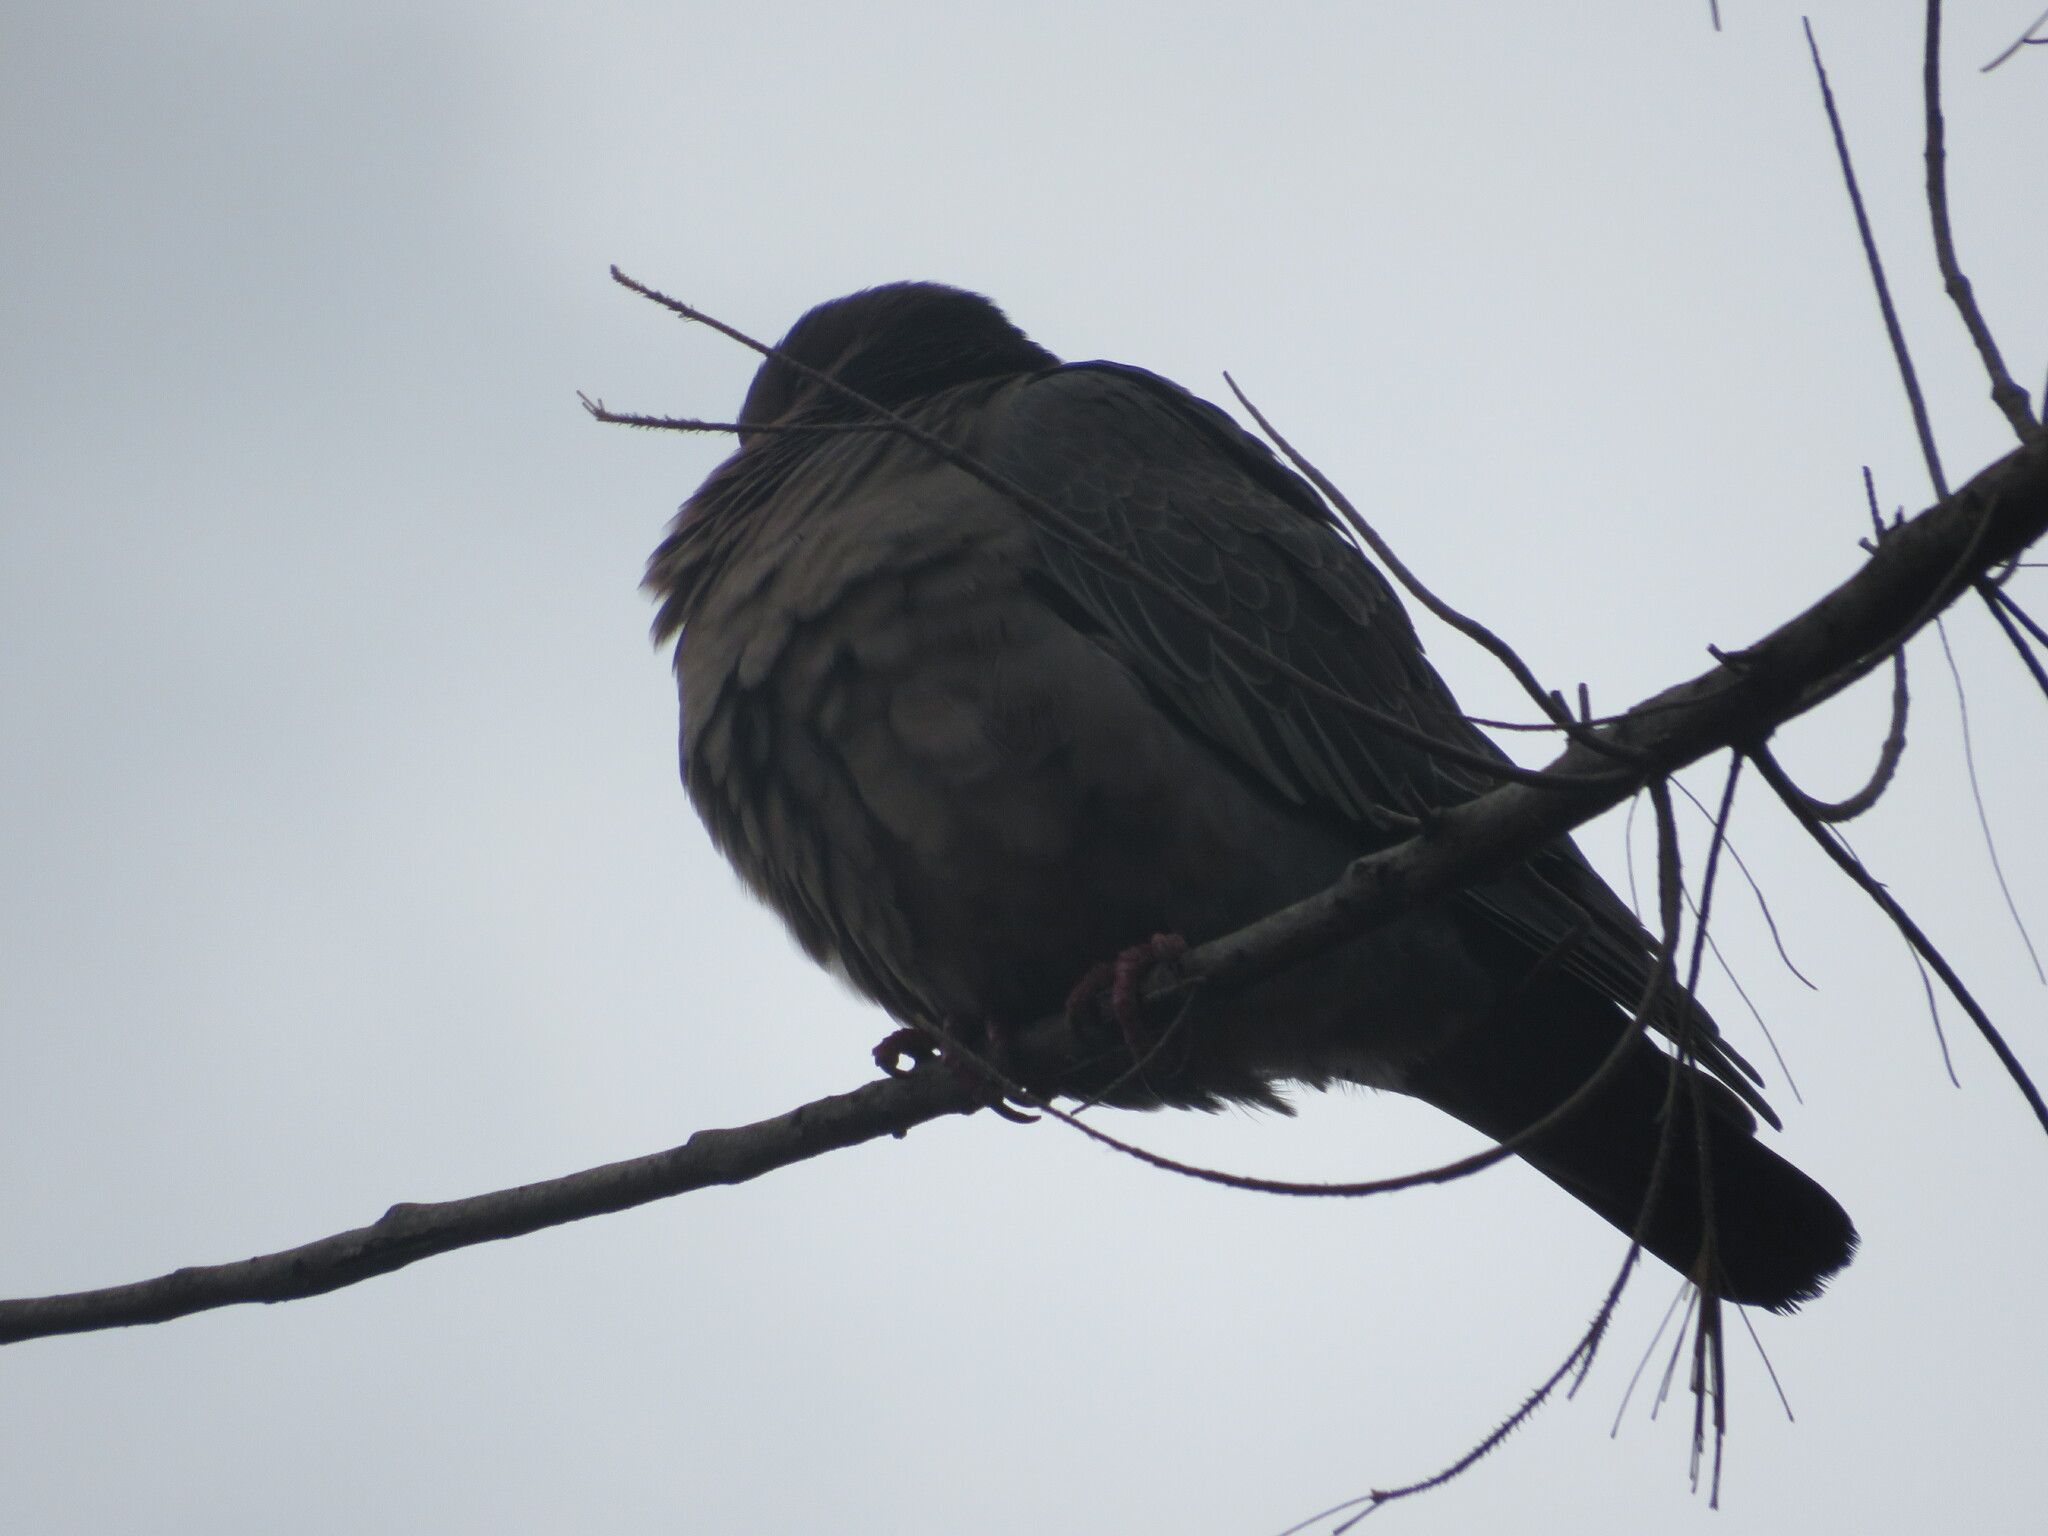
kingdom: Animalia
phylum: Chordata
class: Aves
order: Columbiformes
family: Columbidae
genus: Patagioenas
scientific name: Patagioenas picazuro
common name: Picazuro pigeon
